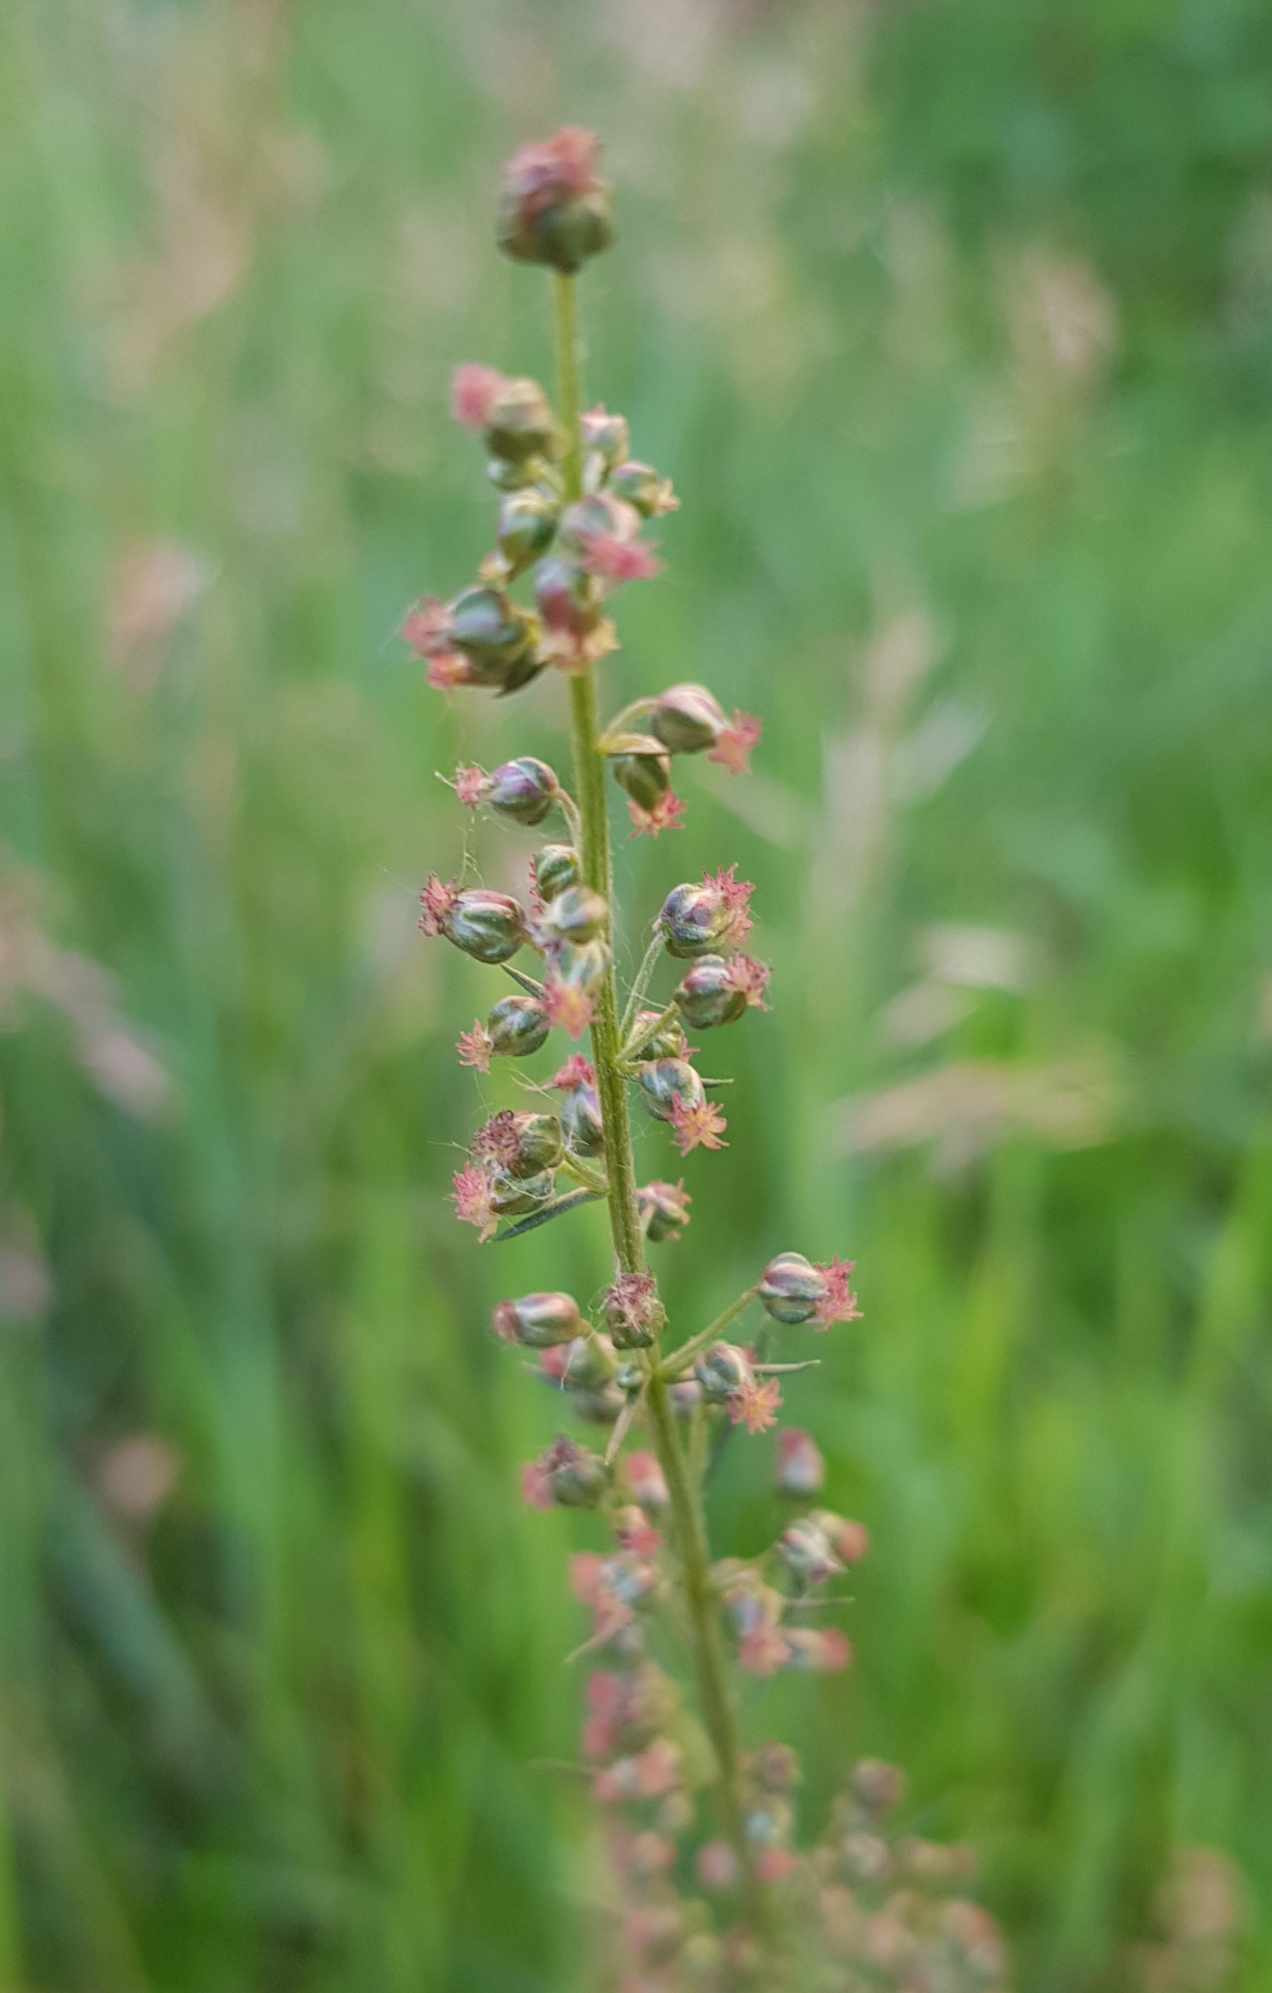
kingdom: Plantae
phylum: Tracheophyta
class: Magnoliopsida
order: Asterales
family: Asteraceae
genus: Artemisia
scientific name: Artemisia pubescens
